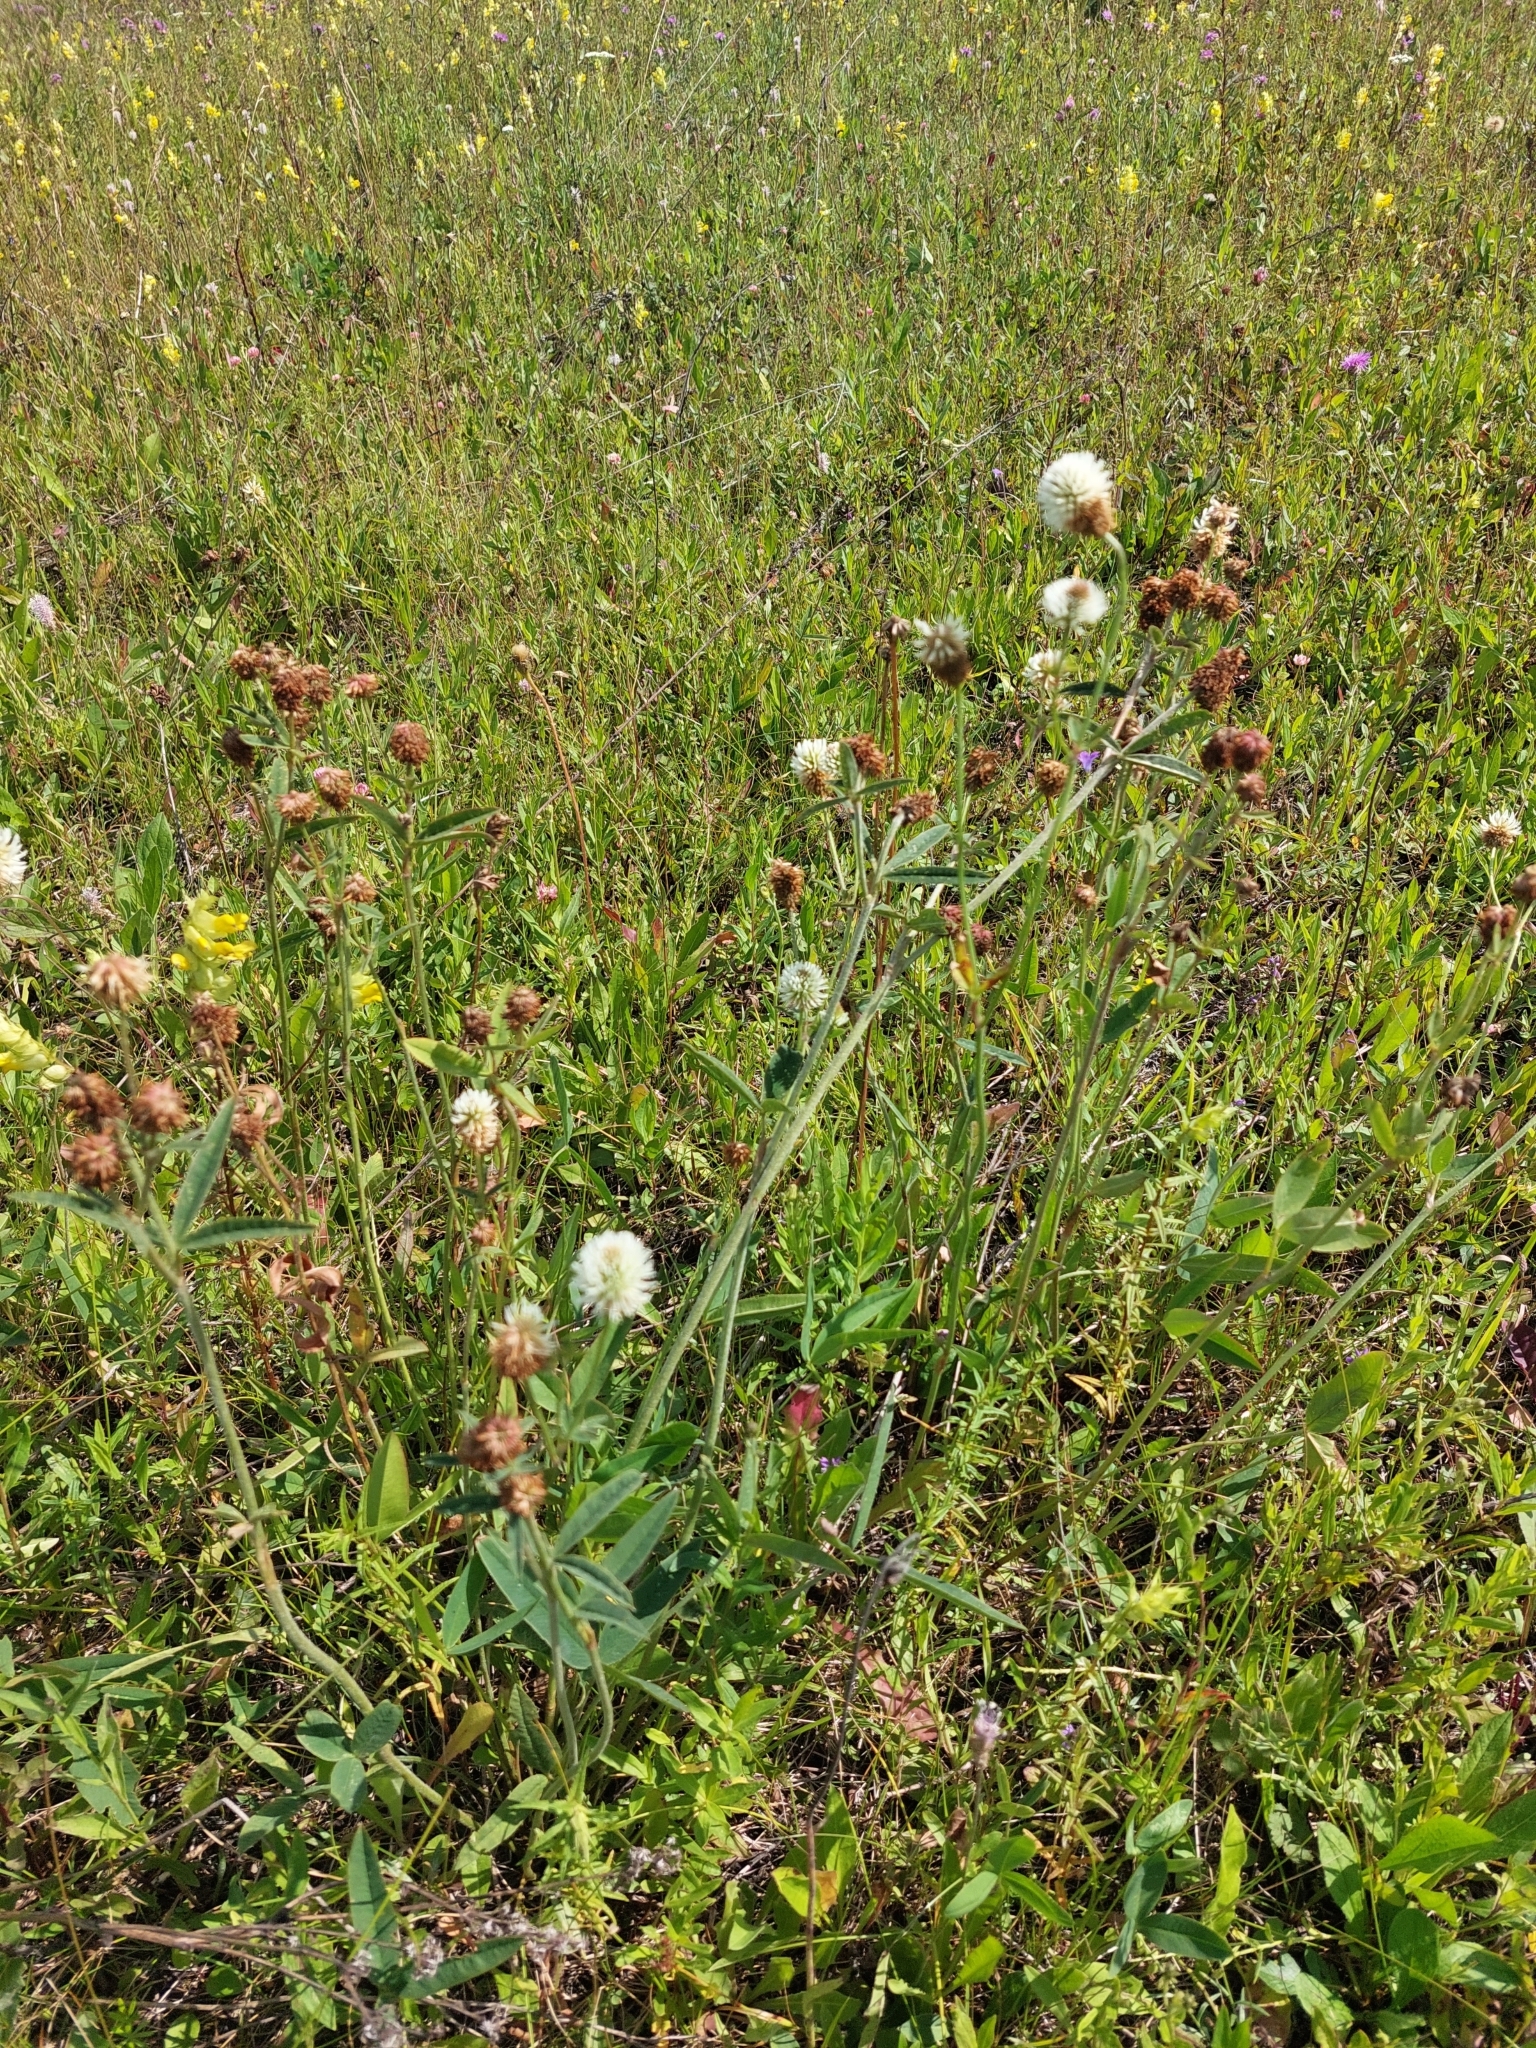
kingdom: Plantae
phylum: Tracheophyta
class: Magnoliopsida
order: Fabales
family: Fabaceae
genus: Trifolium
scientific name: Trifolium montanum
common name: Mountain clover
